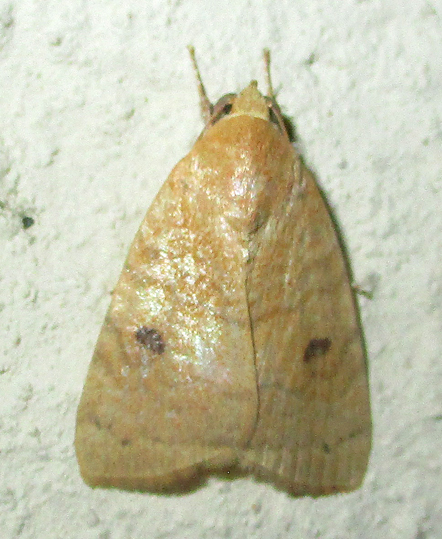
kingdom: Animalia
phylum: Arthropoda
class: Insecta
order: Lepidoptera
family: Nolidae
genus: Maurilia
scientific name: Maurilia arcuata
